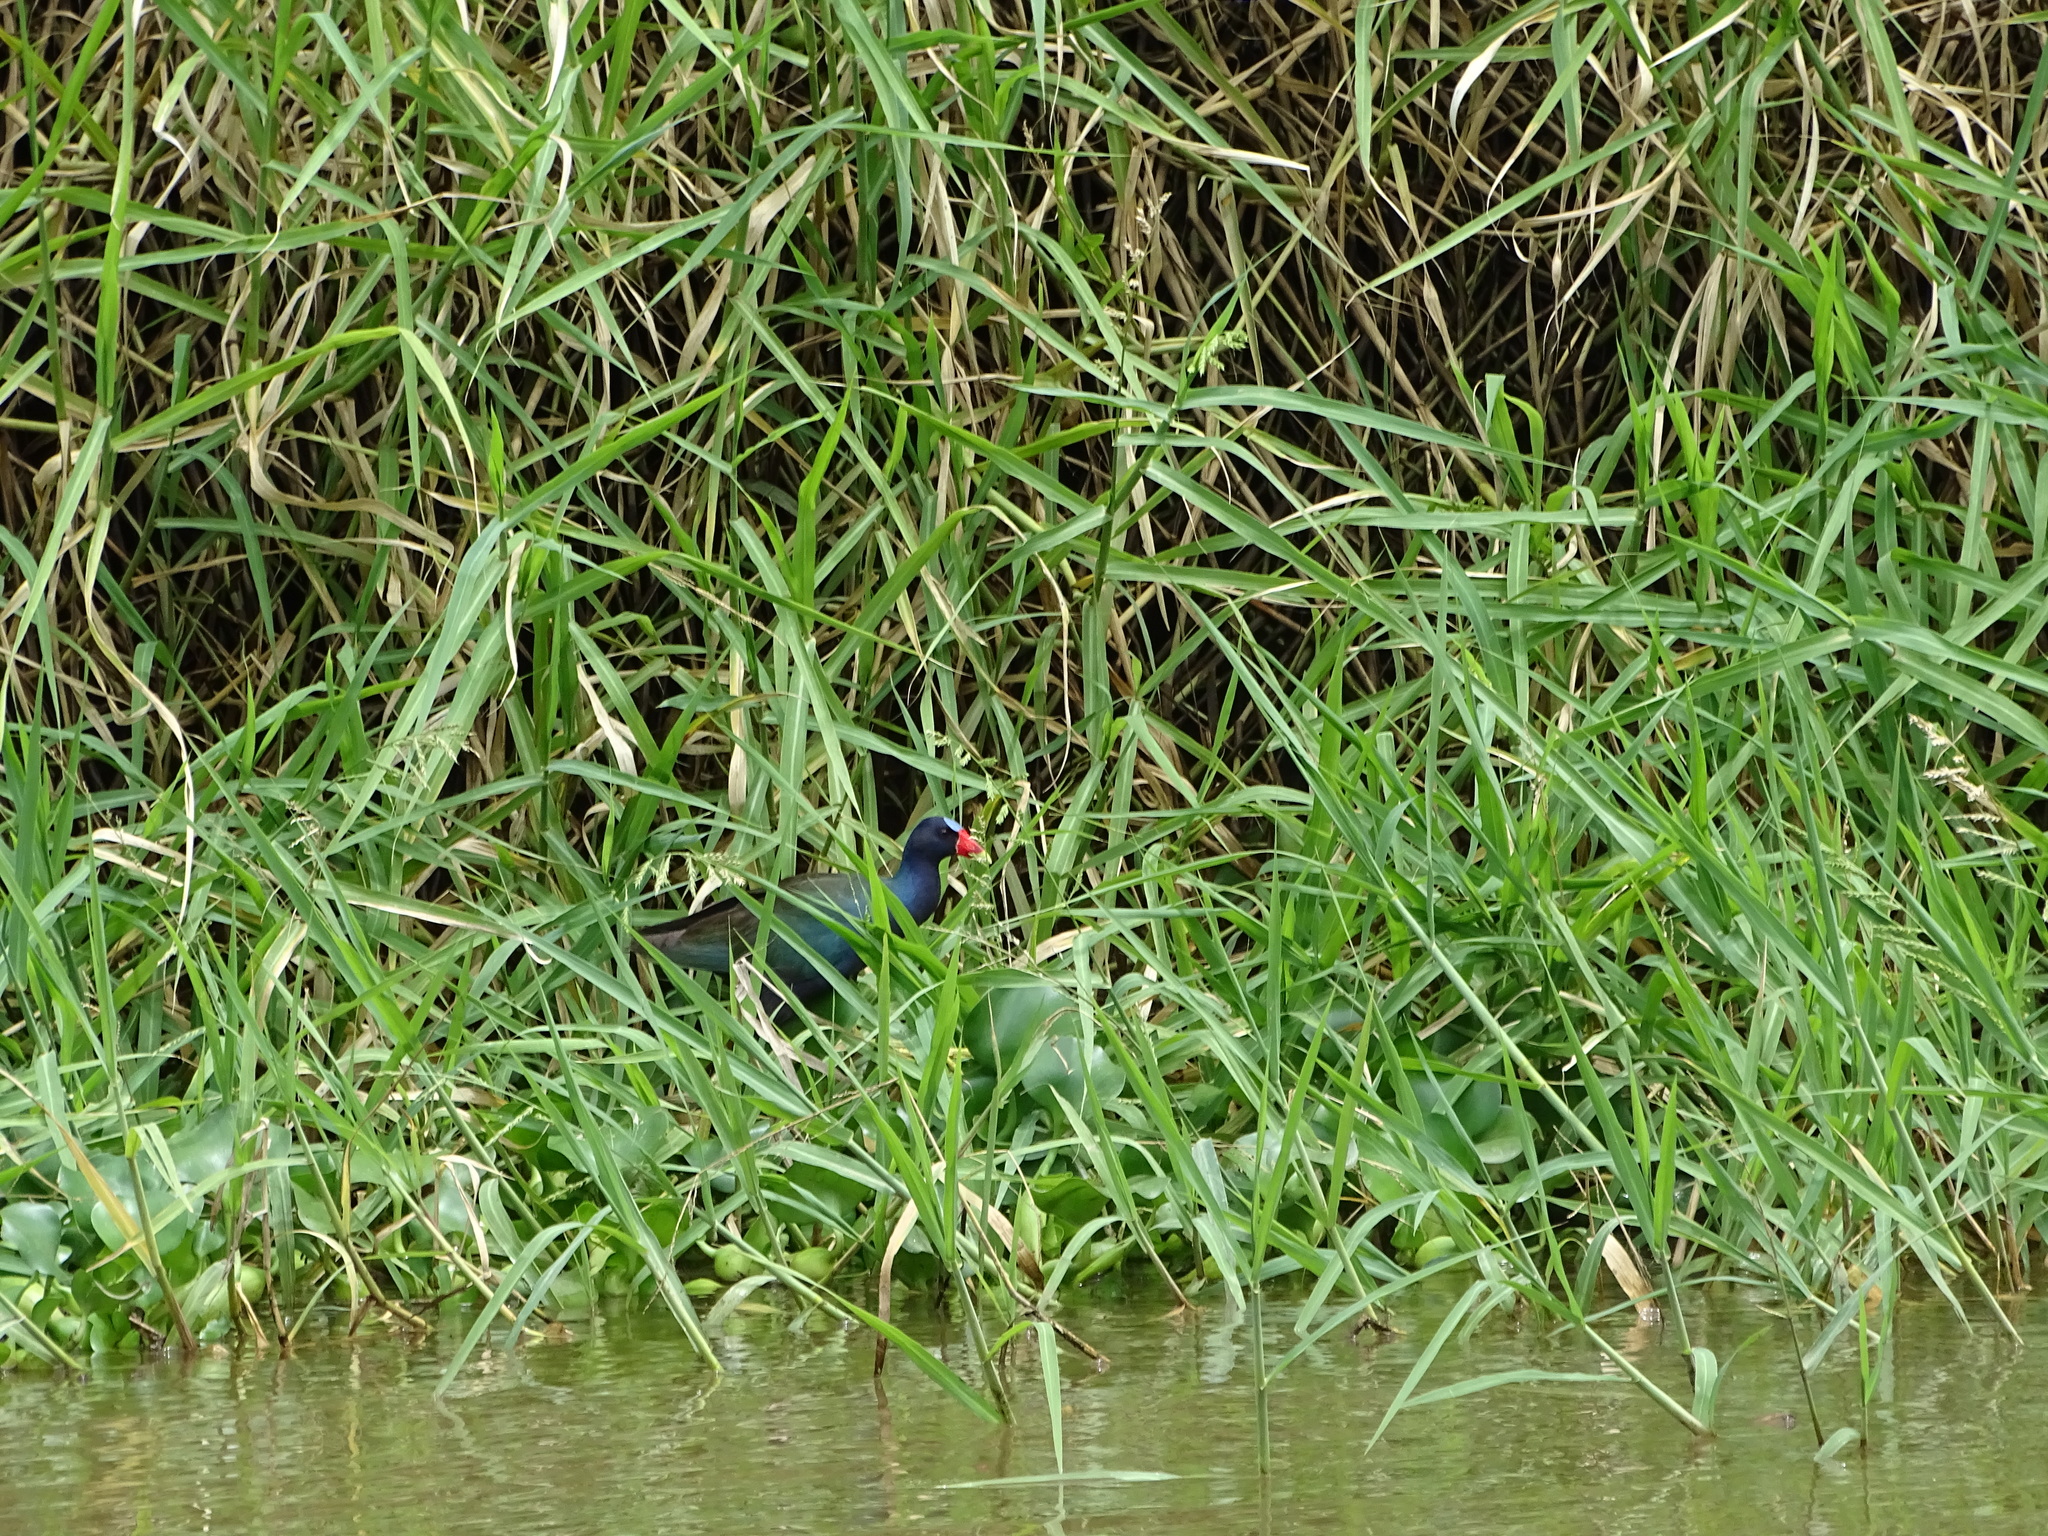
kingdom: Animalia
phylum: Chordata
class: Aves
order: Gruiformes
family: Rallidae
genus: Porphyrio
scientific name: Porphyrio martinica
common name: Purple gallinule
